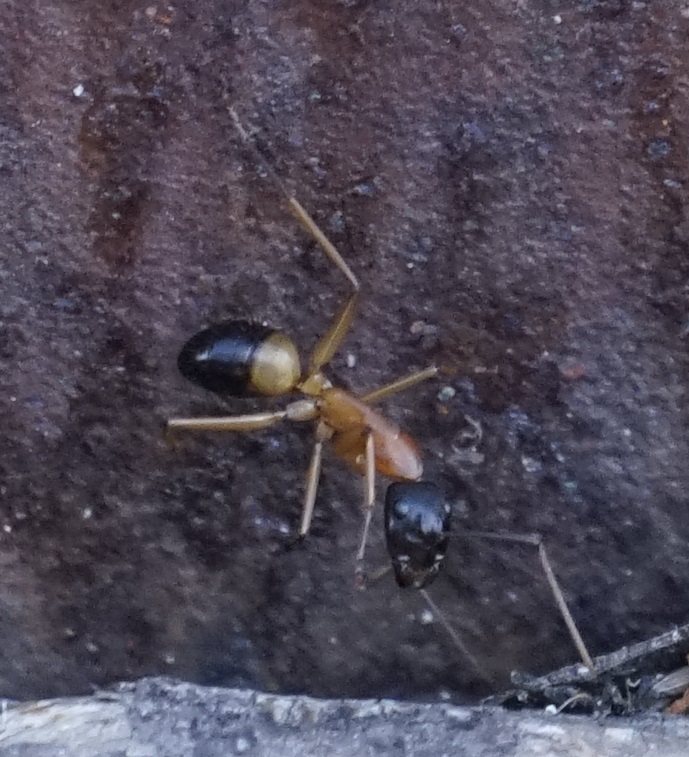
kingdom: Animalia
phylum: Arthropoda
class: Insecta
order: Hymenoptera
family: Formicidae
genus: Camponotus
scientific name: Camponotus consobrinus
